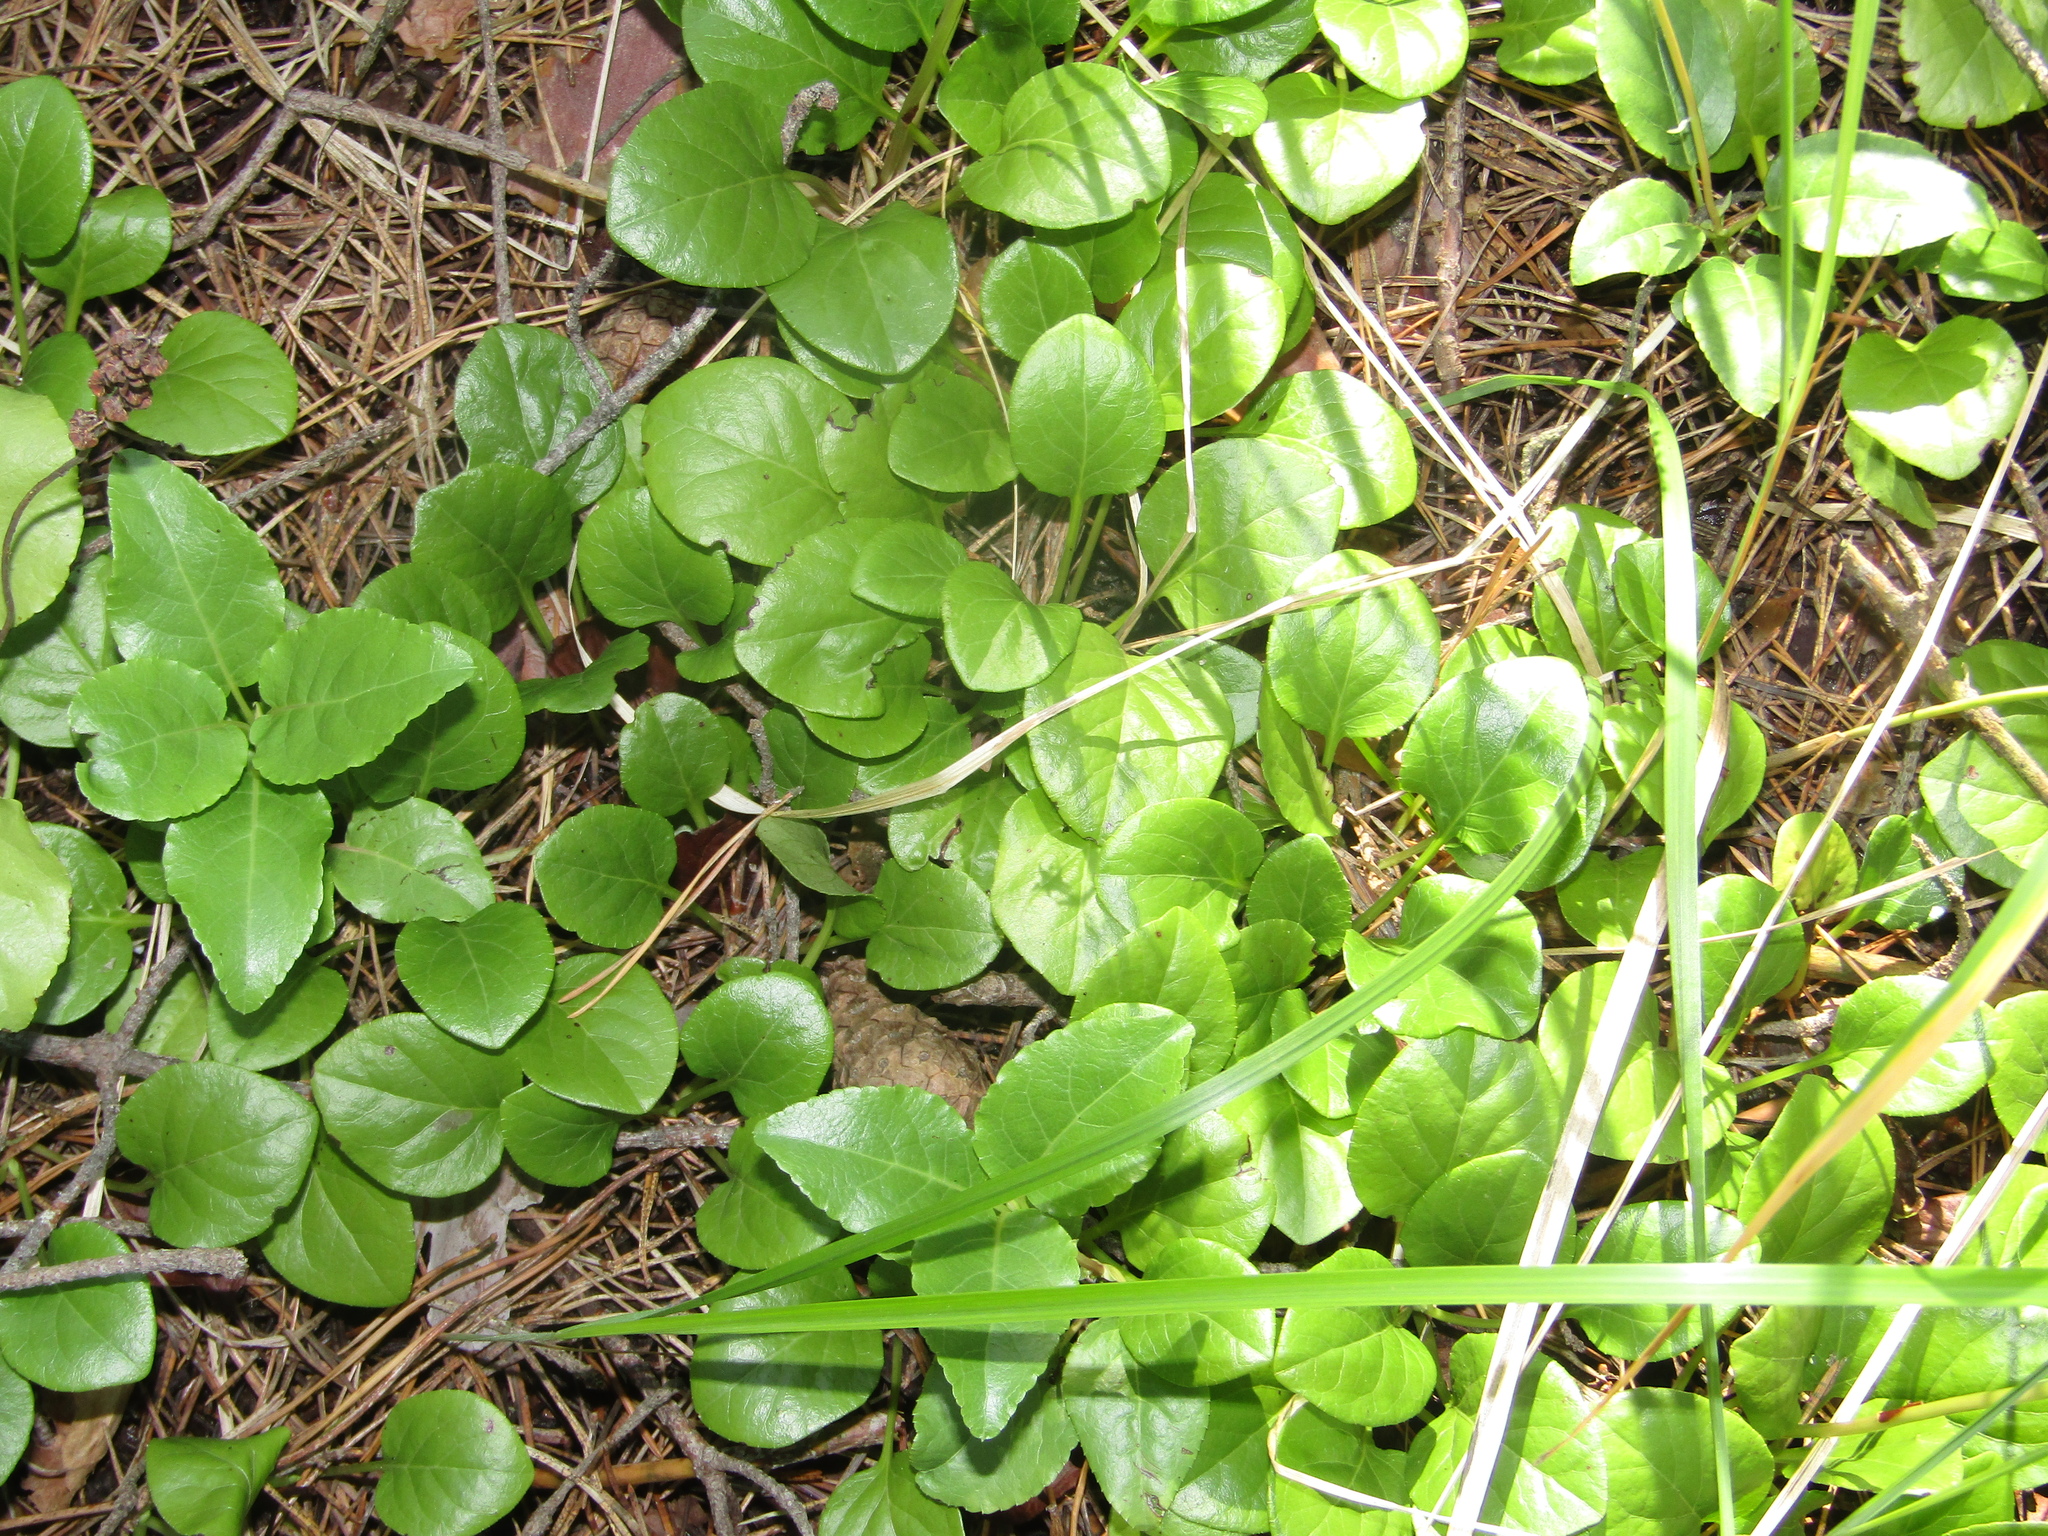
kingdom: Plantae
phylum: Tracheophyta
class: Magnoliopsida
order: Ericales
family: Ericaceae
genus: Orthilia
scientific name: Orthilia secunda
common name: One-sided orthilia
